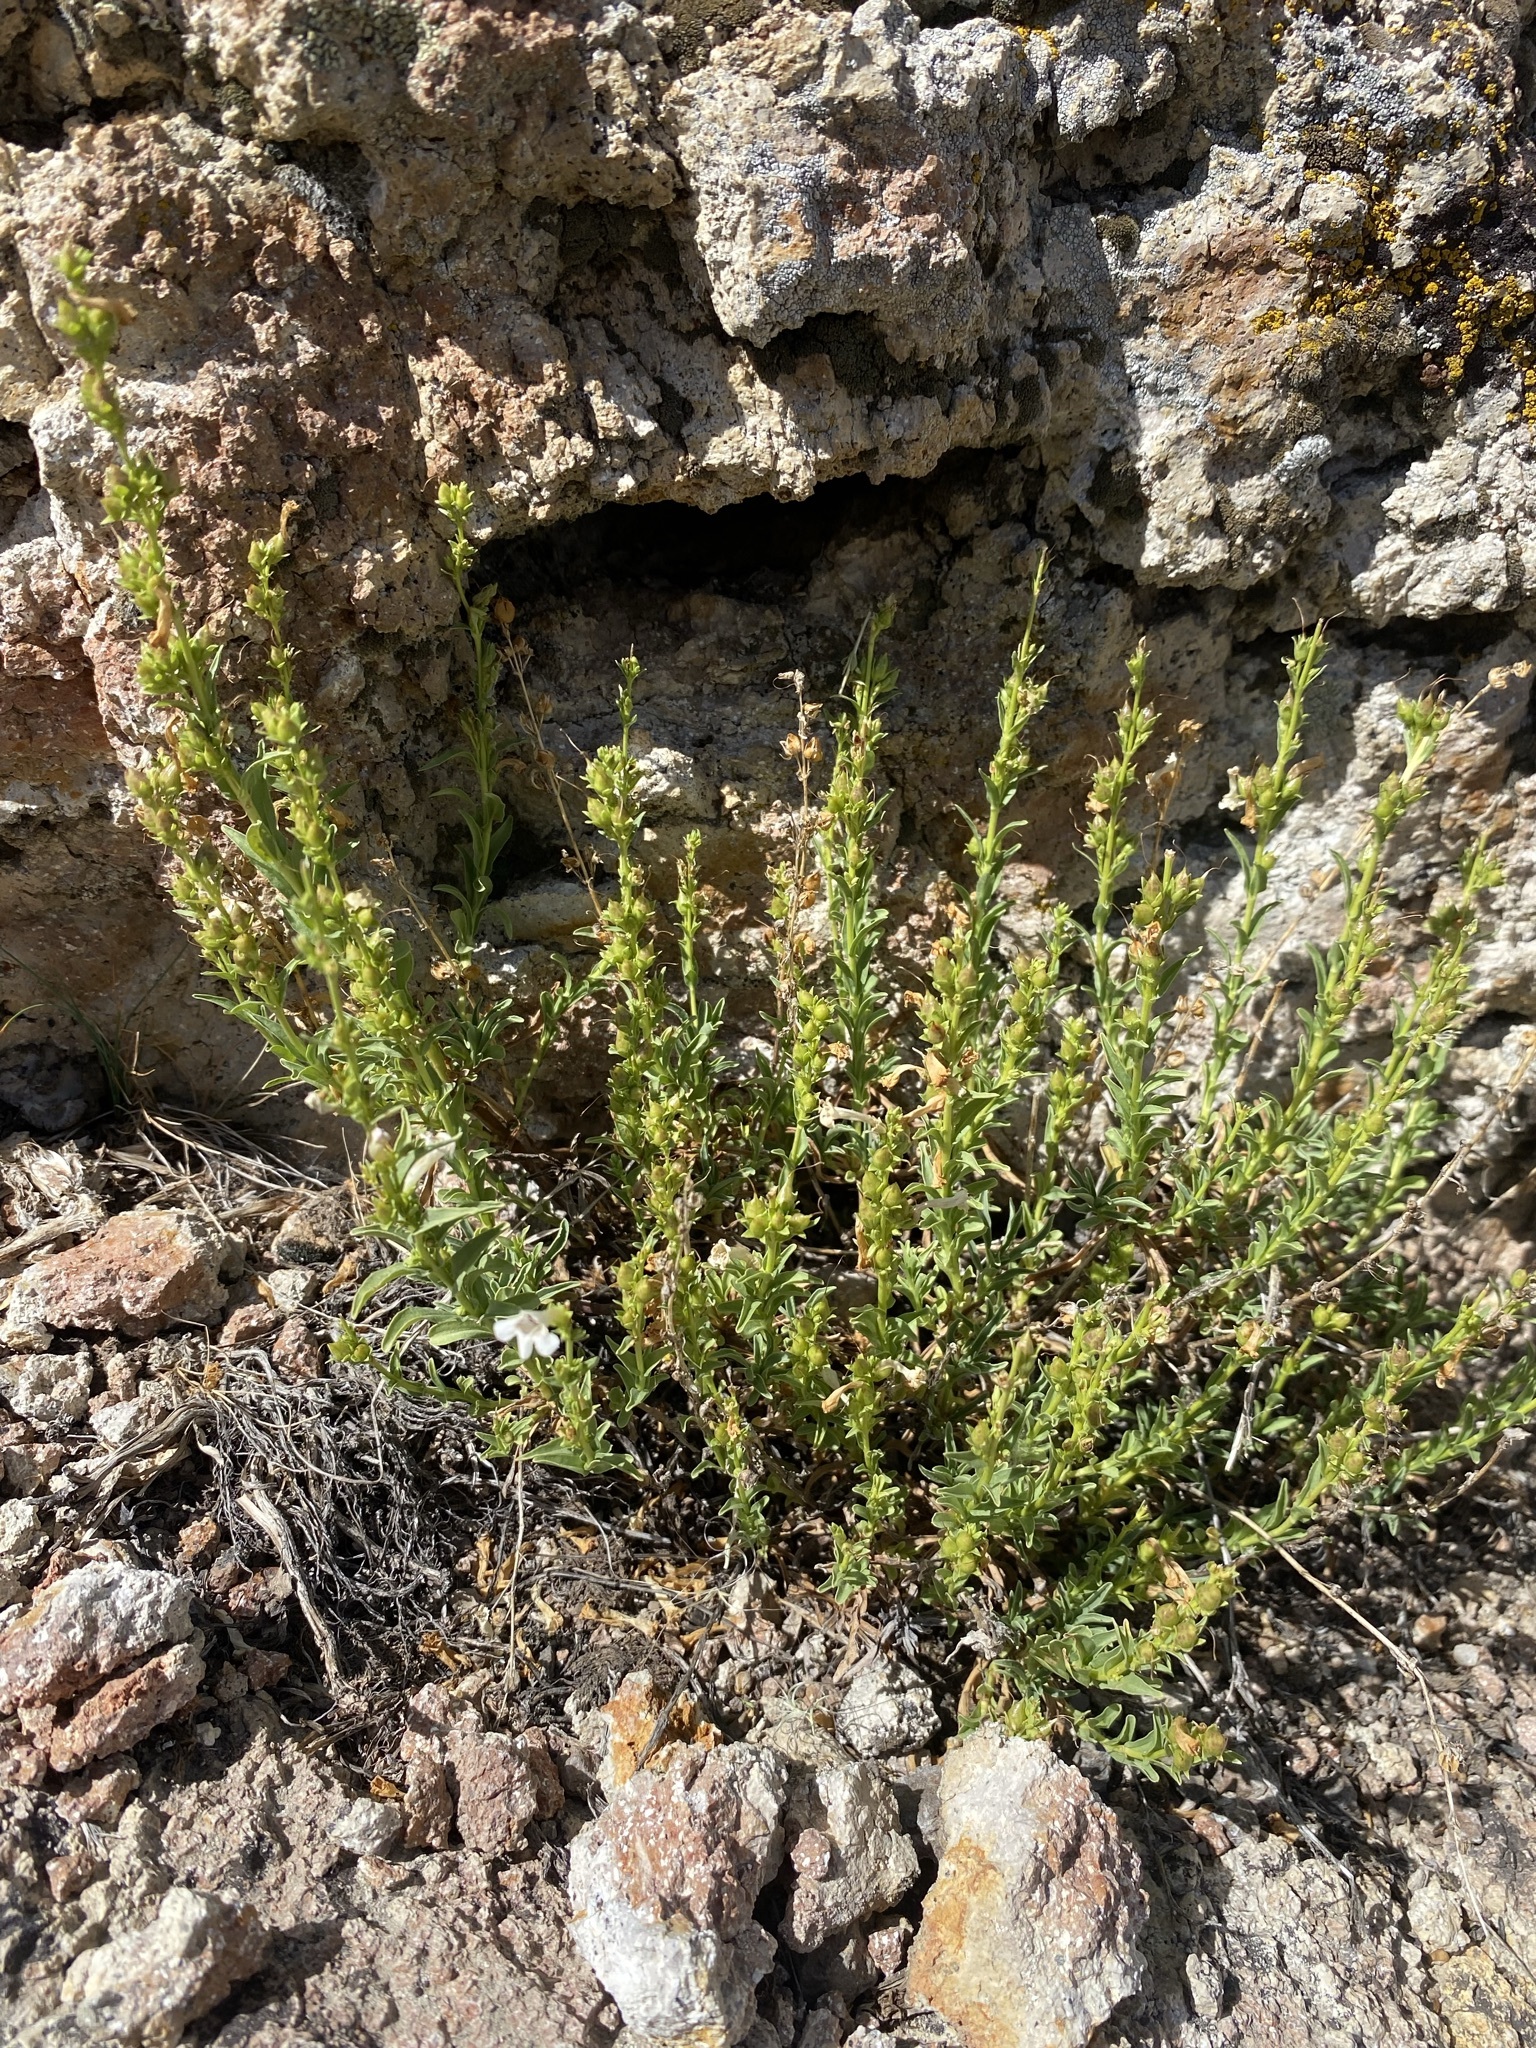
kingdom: Plantae
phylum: Tracheophyta
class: Magnoliopsida
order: Lamiales
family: Plantaginaceae
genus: Penstemon
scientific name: Penstemon deustus
